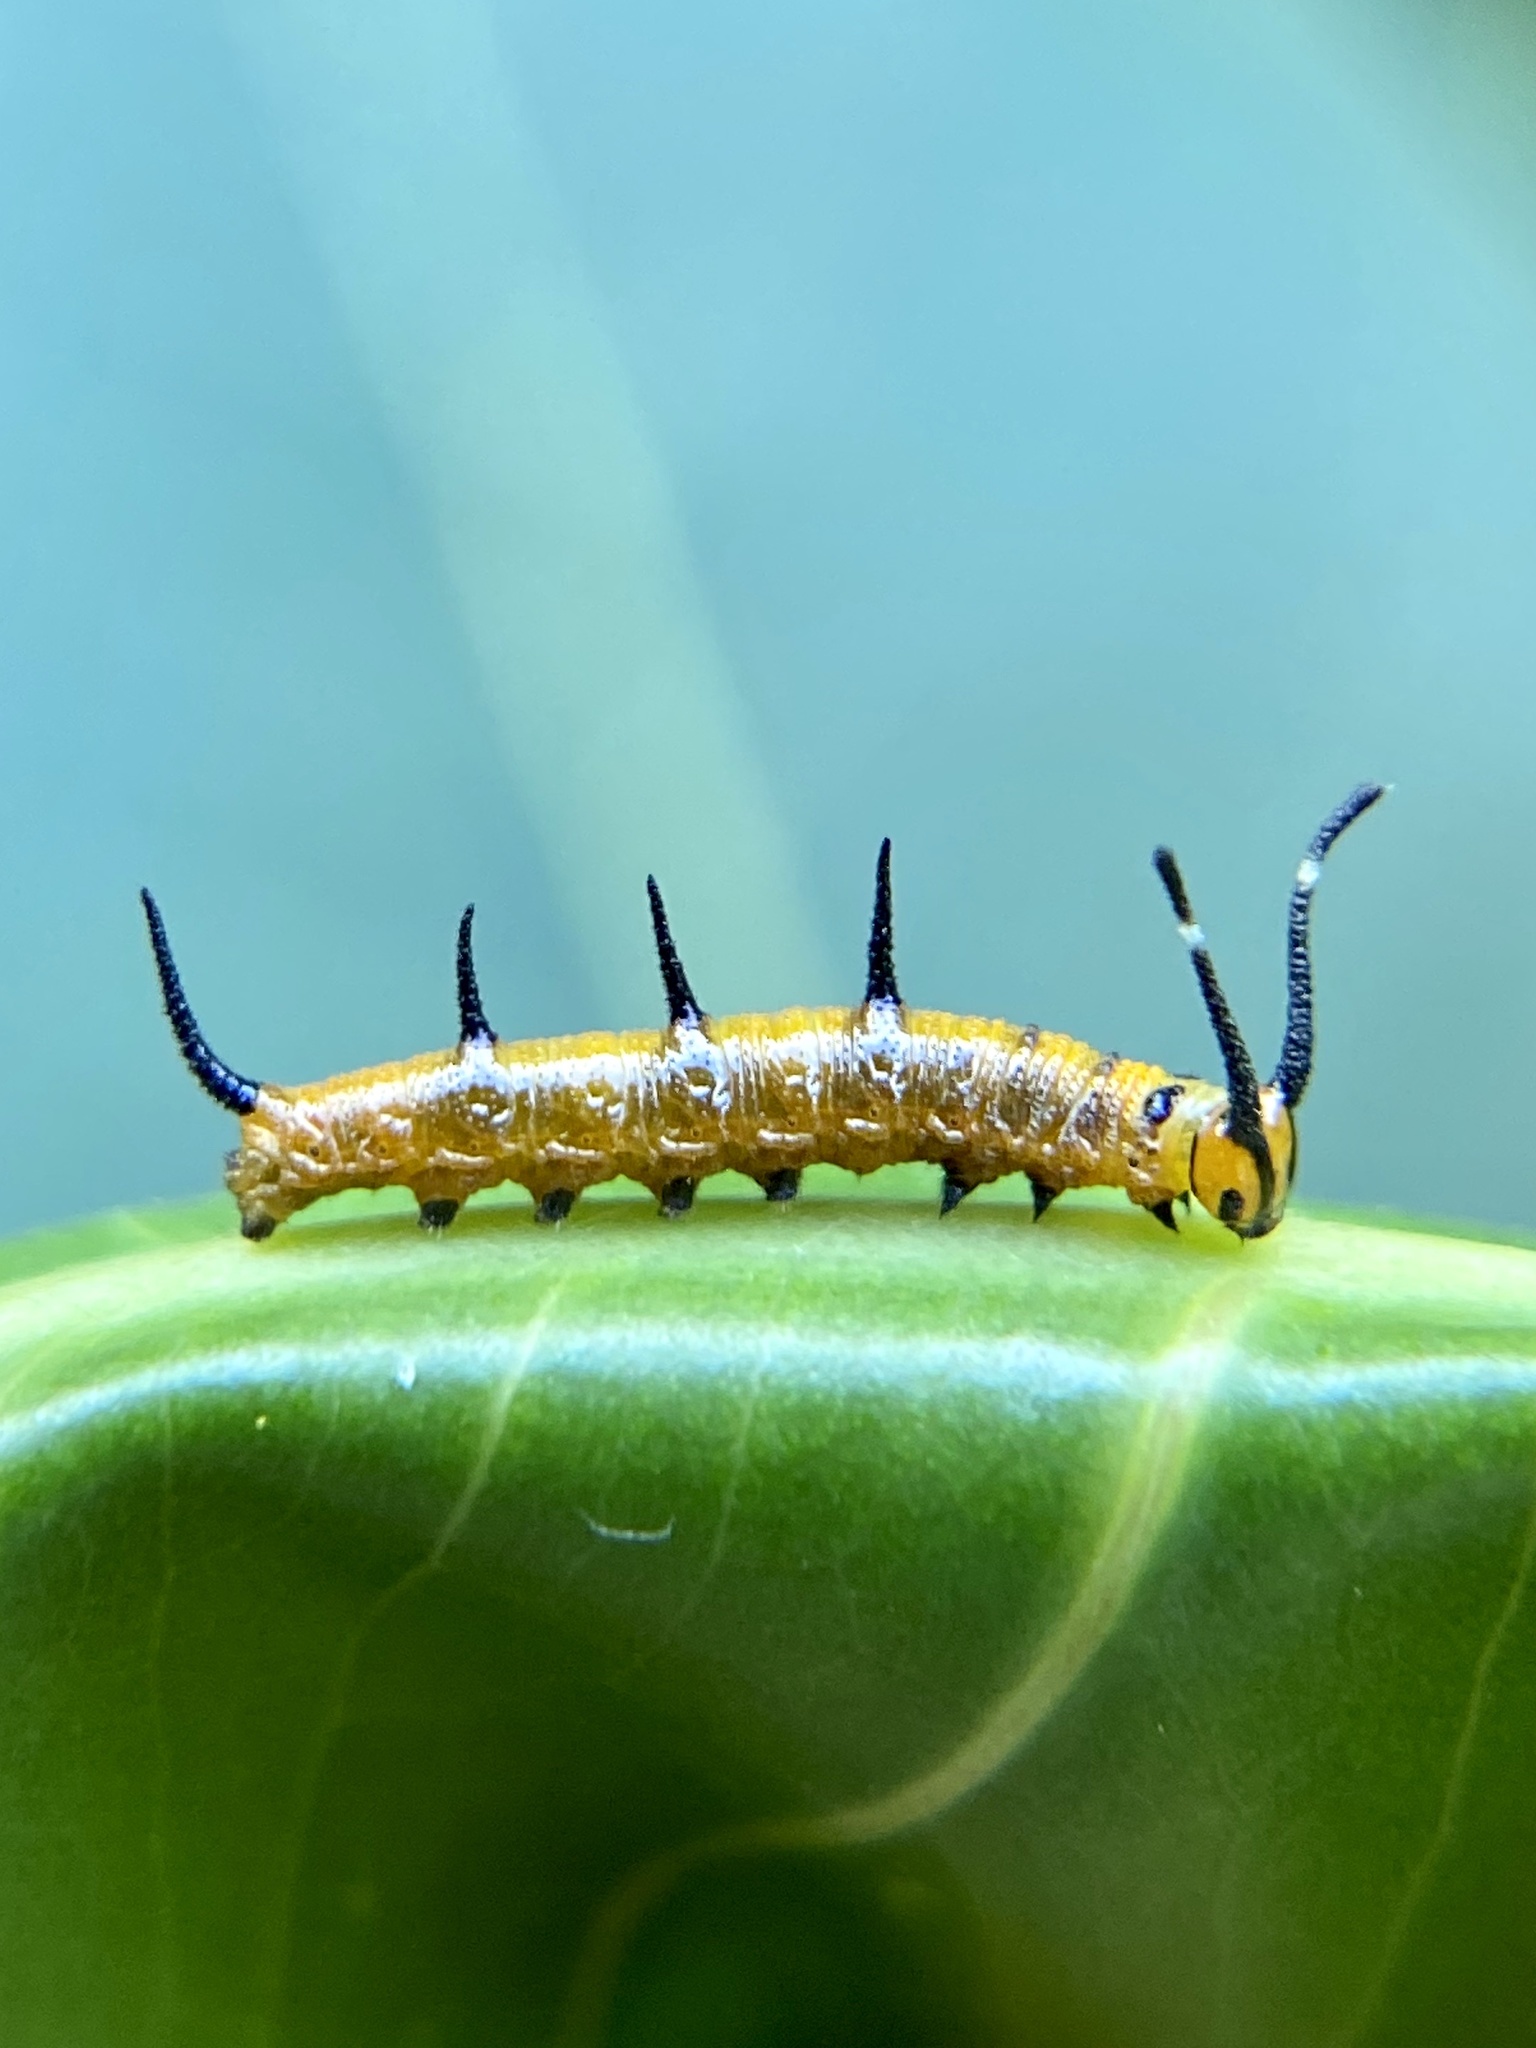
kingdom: Animalia
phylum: Arthropoda
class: Insecta
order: Lepidoptera
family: Nymphalidae
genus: Marpesia
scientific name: Marpesia petreus
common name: Red dagger wing
